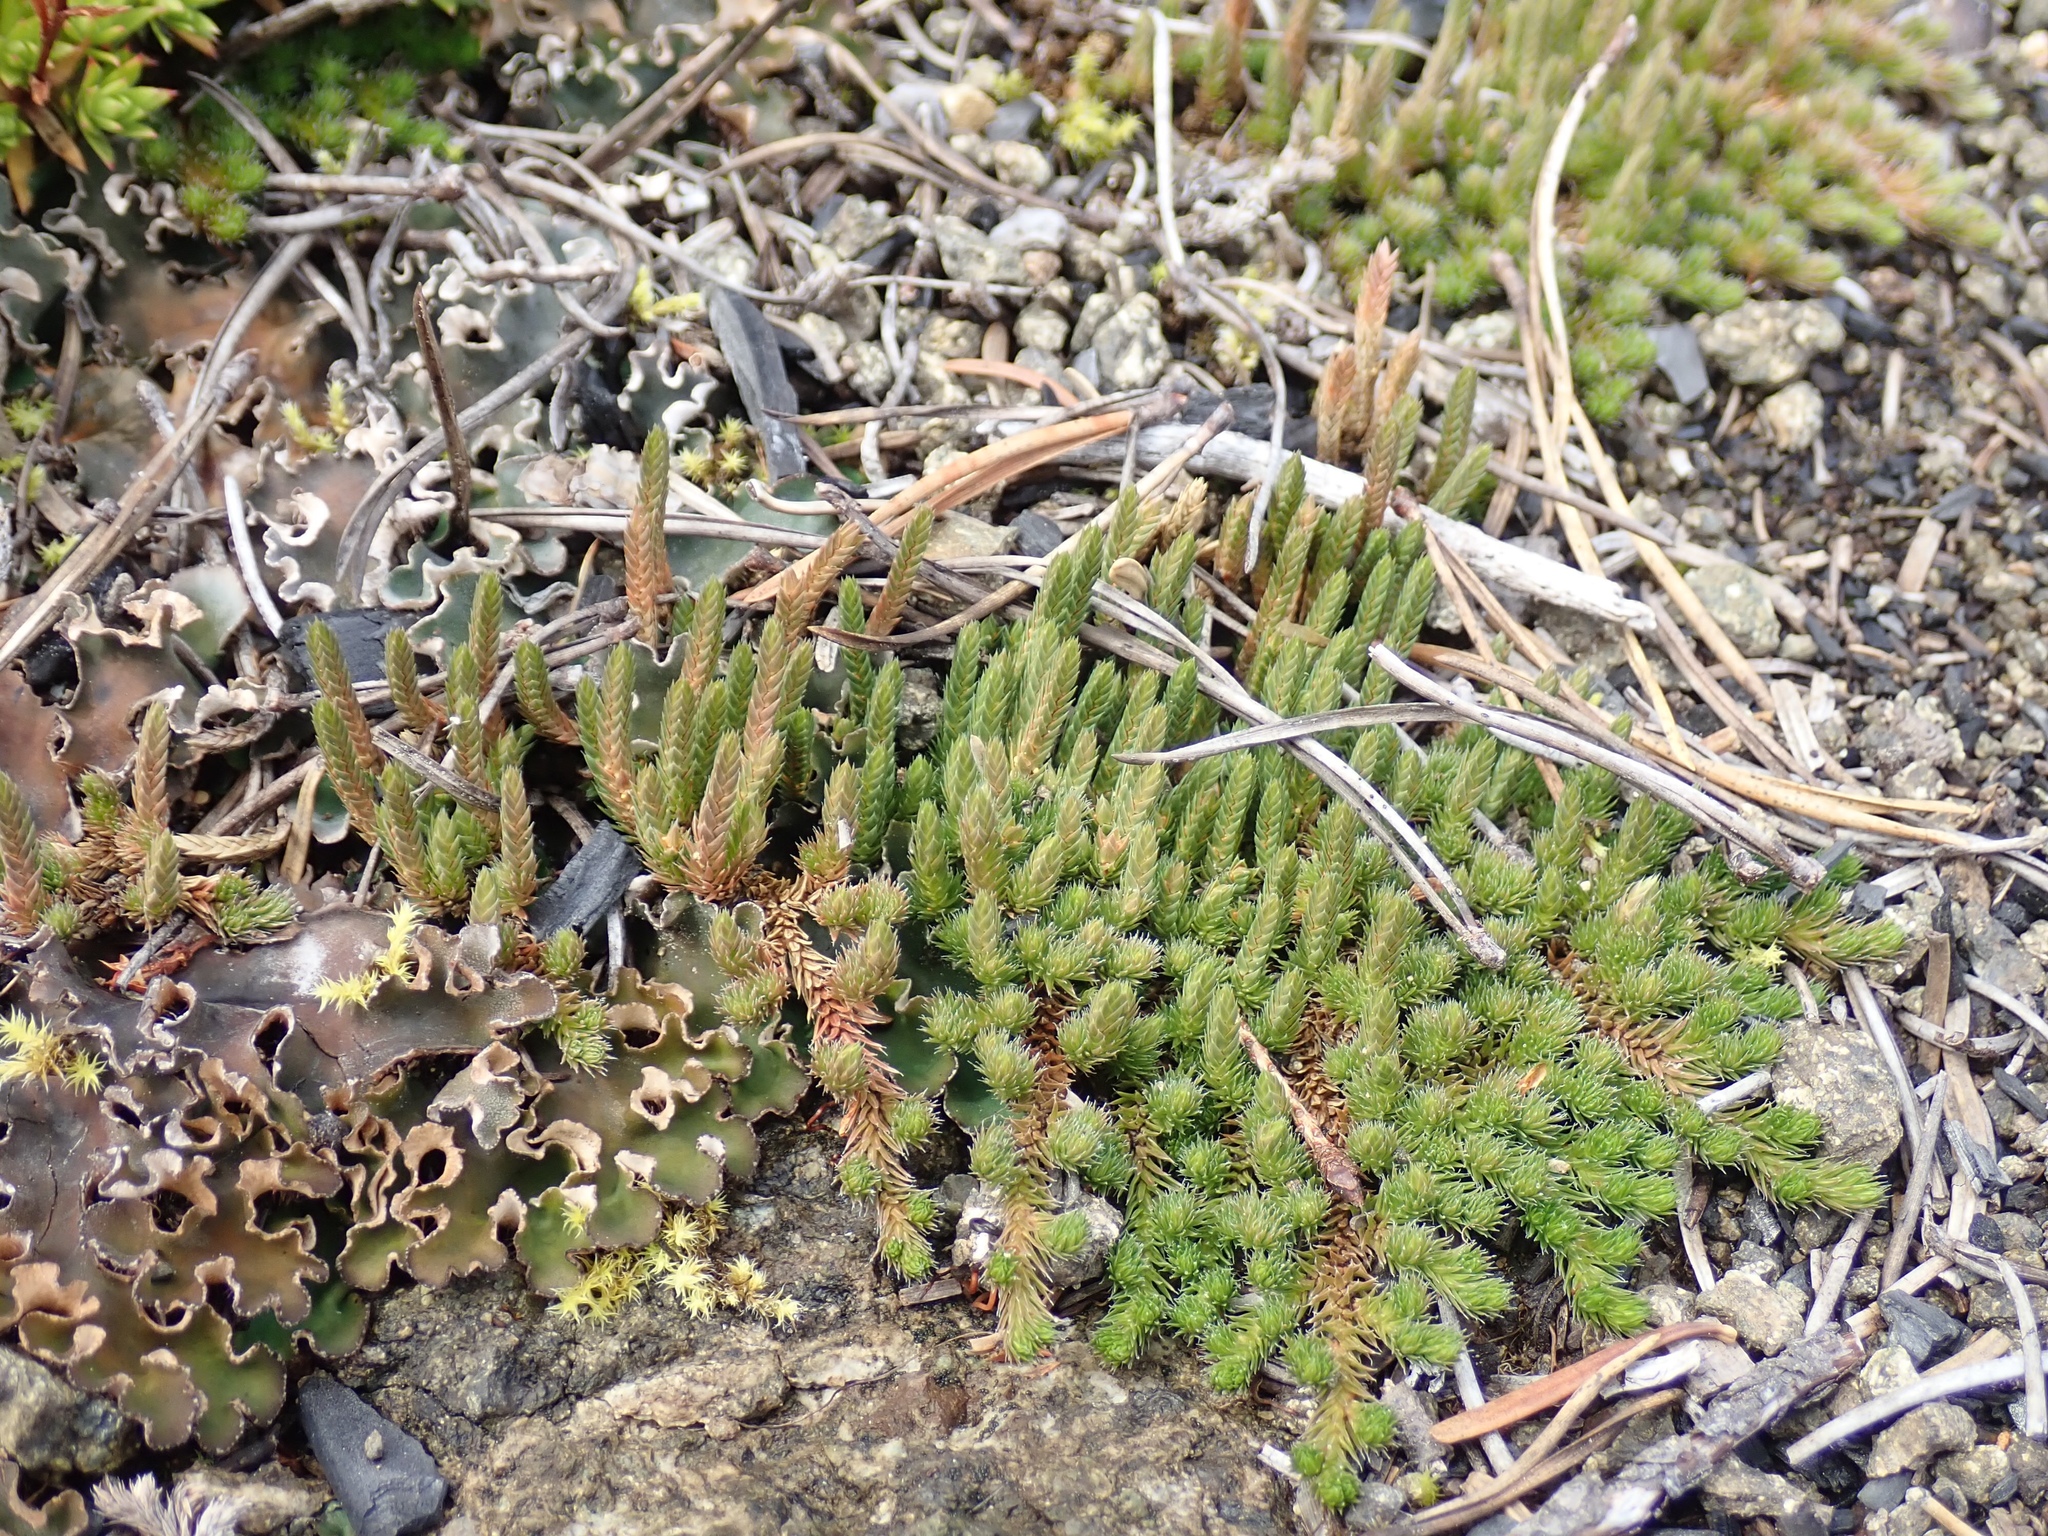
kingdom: Plantae
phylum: Tracheophyta
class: Lycopodiopsida
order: Selaginellales
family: Selaginellaceae
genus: Selaginella
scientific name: Selaginella densa
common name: Mountain spike-moss
